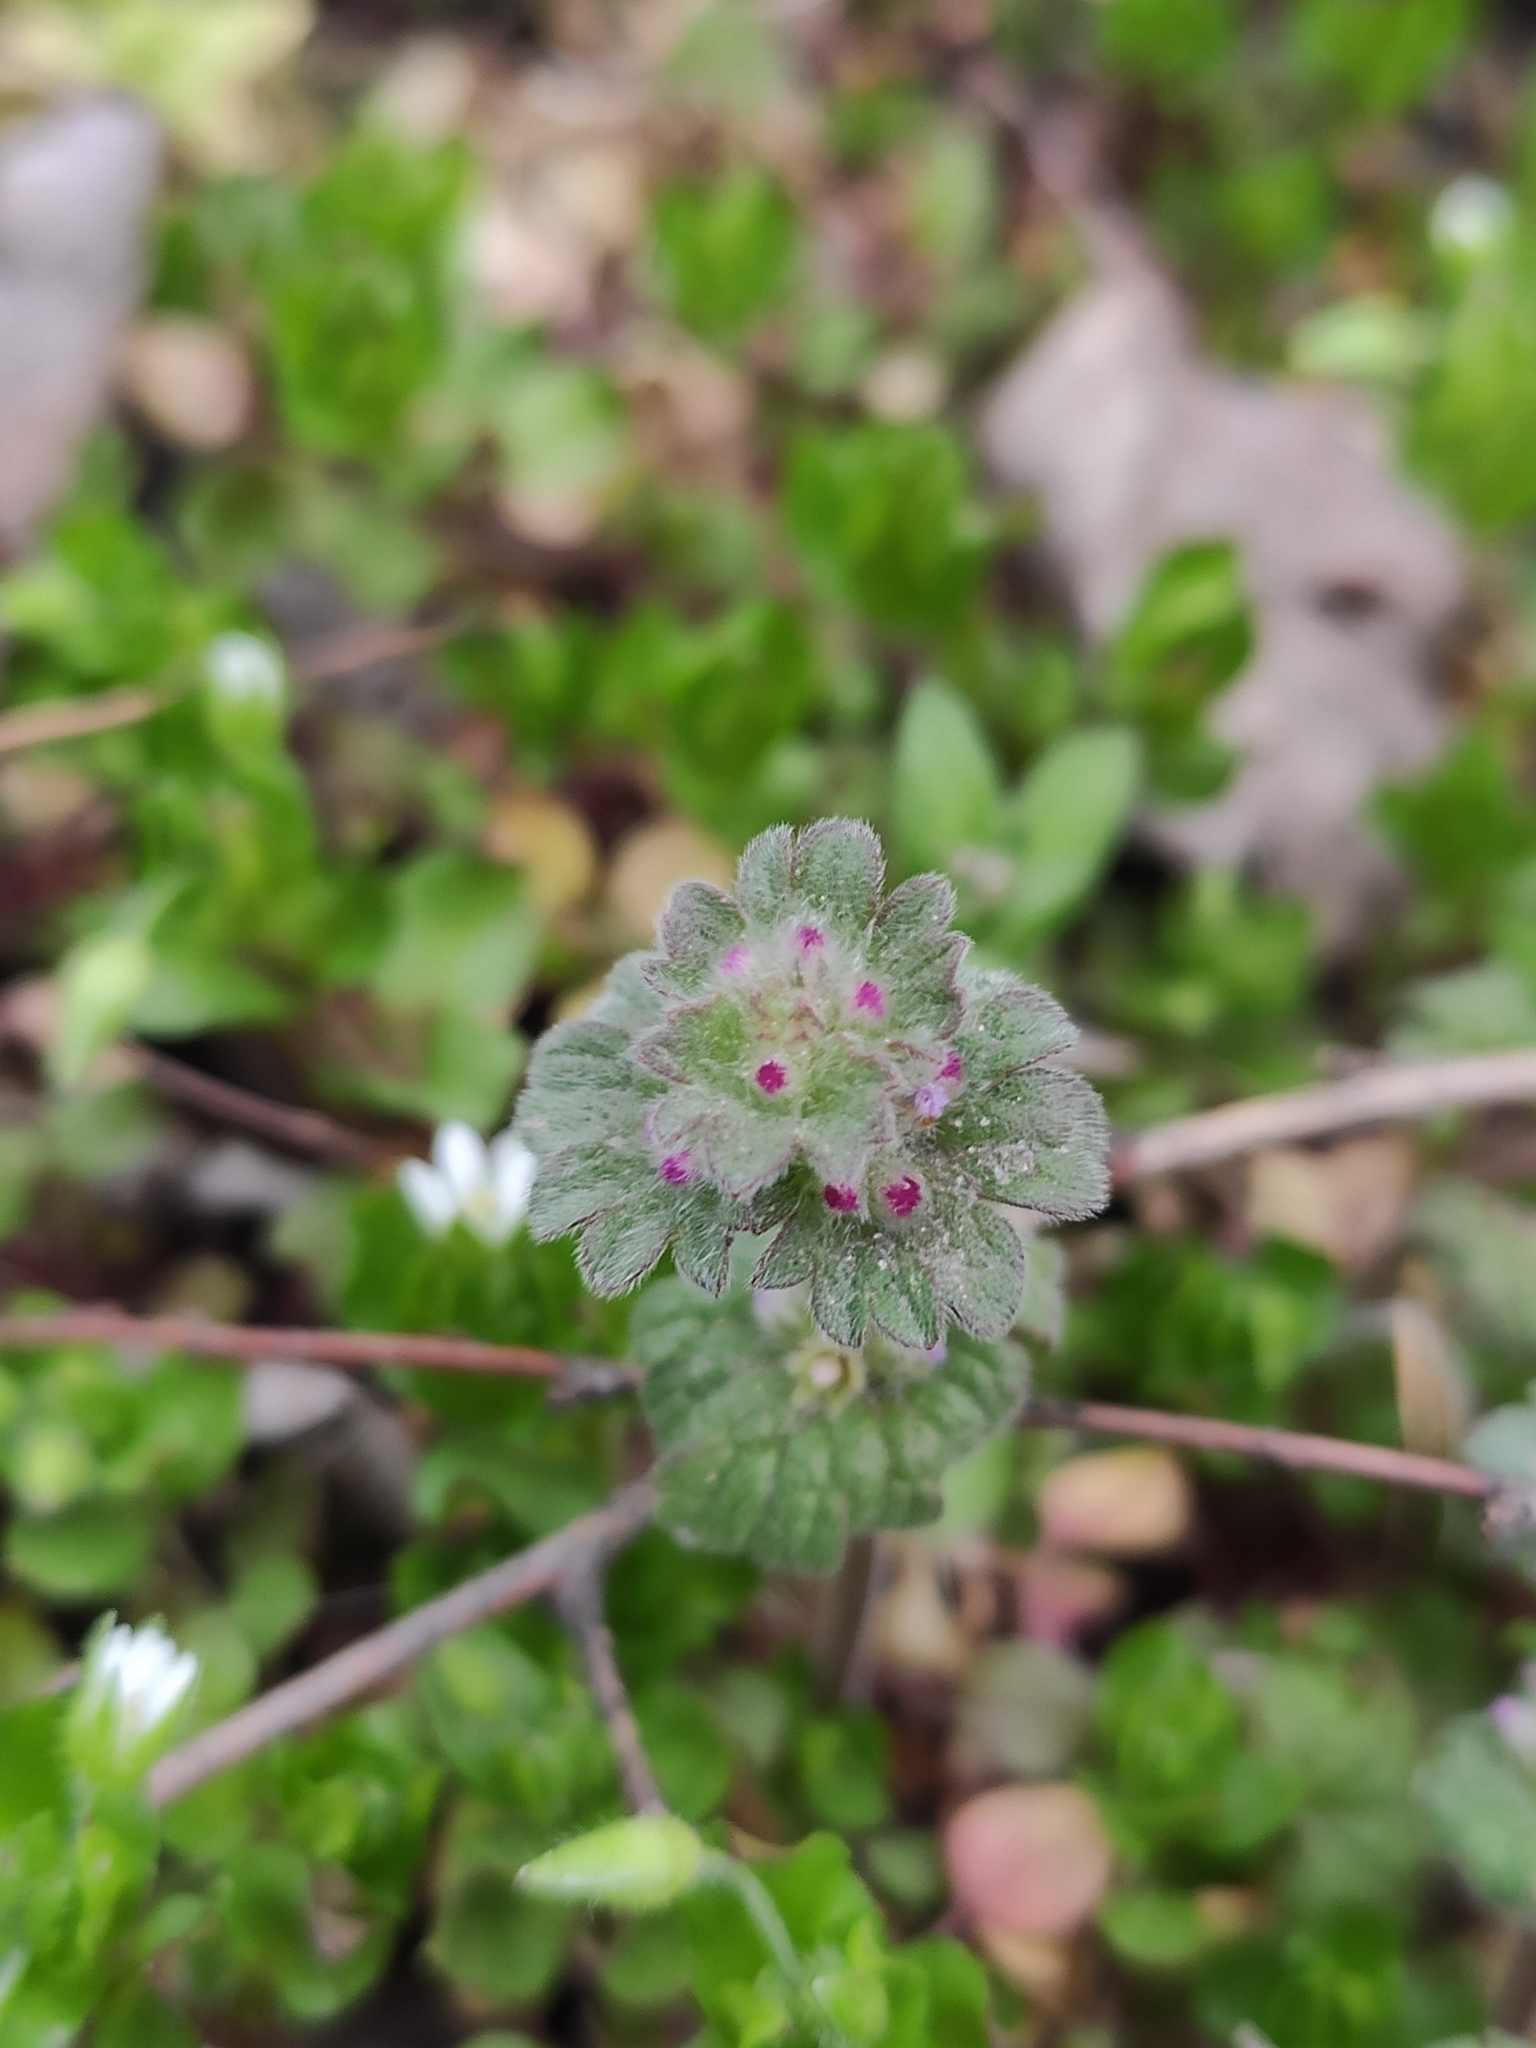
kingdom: Plantae
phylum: Tracheophyta
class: Magnoliopsida
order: Lamiales
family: Lamiaceae
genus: Lamium
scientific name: Lamium amplexicaule
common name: Henbit dead-nettle
